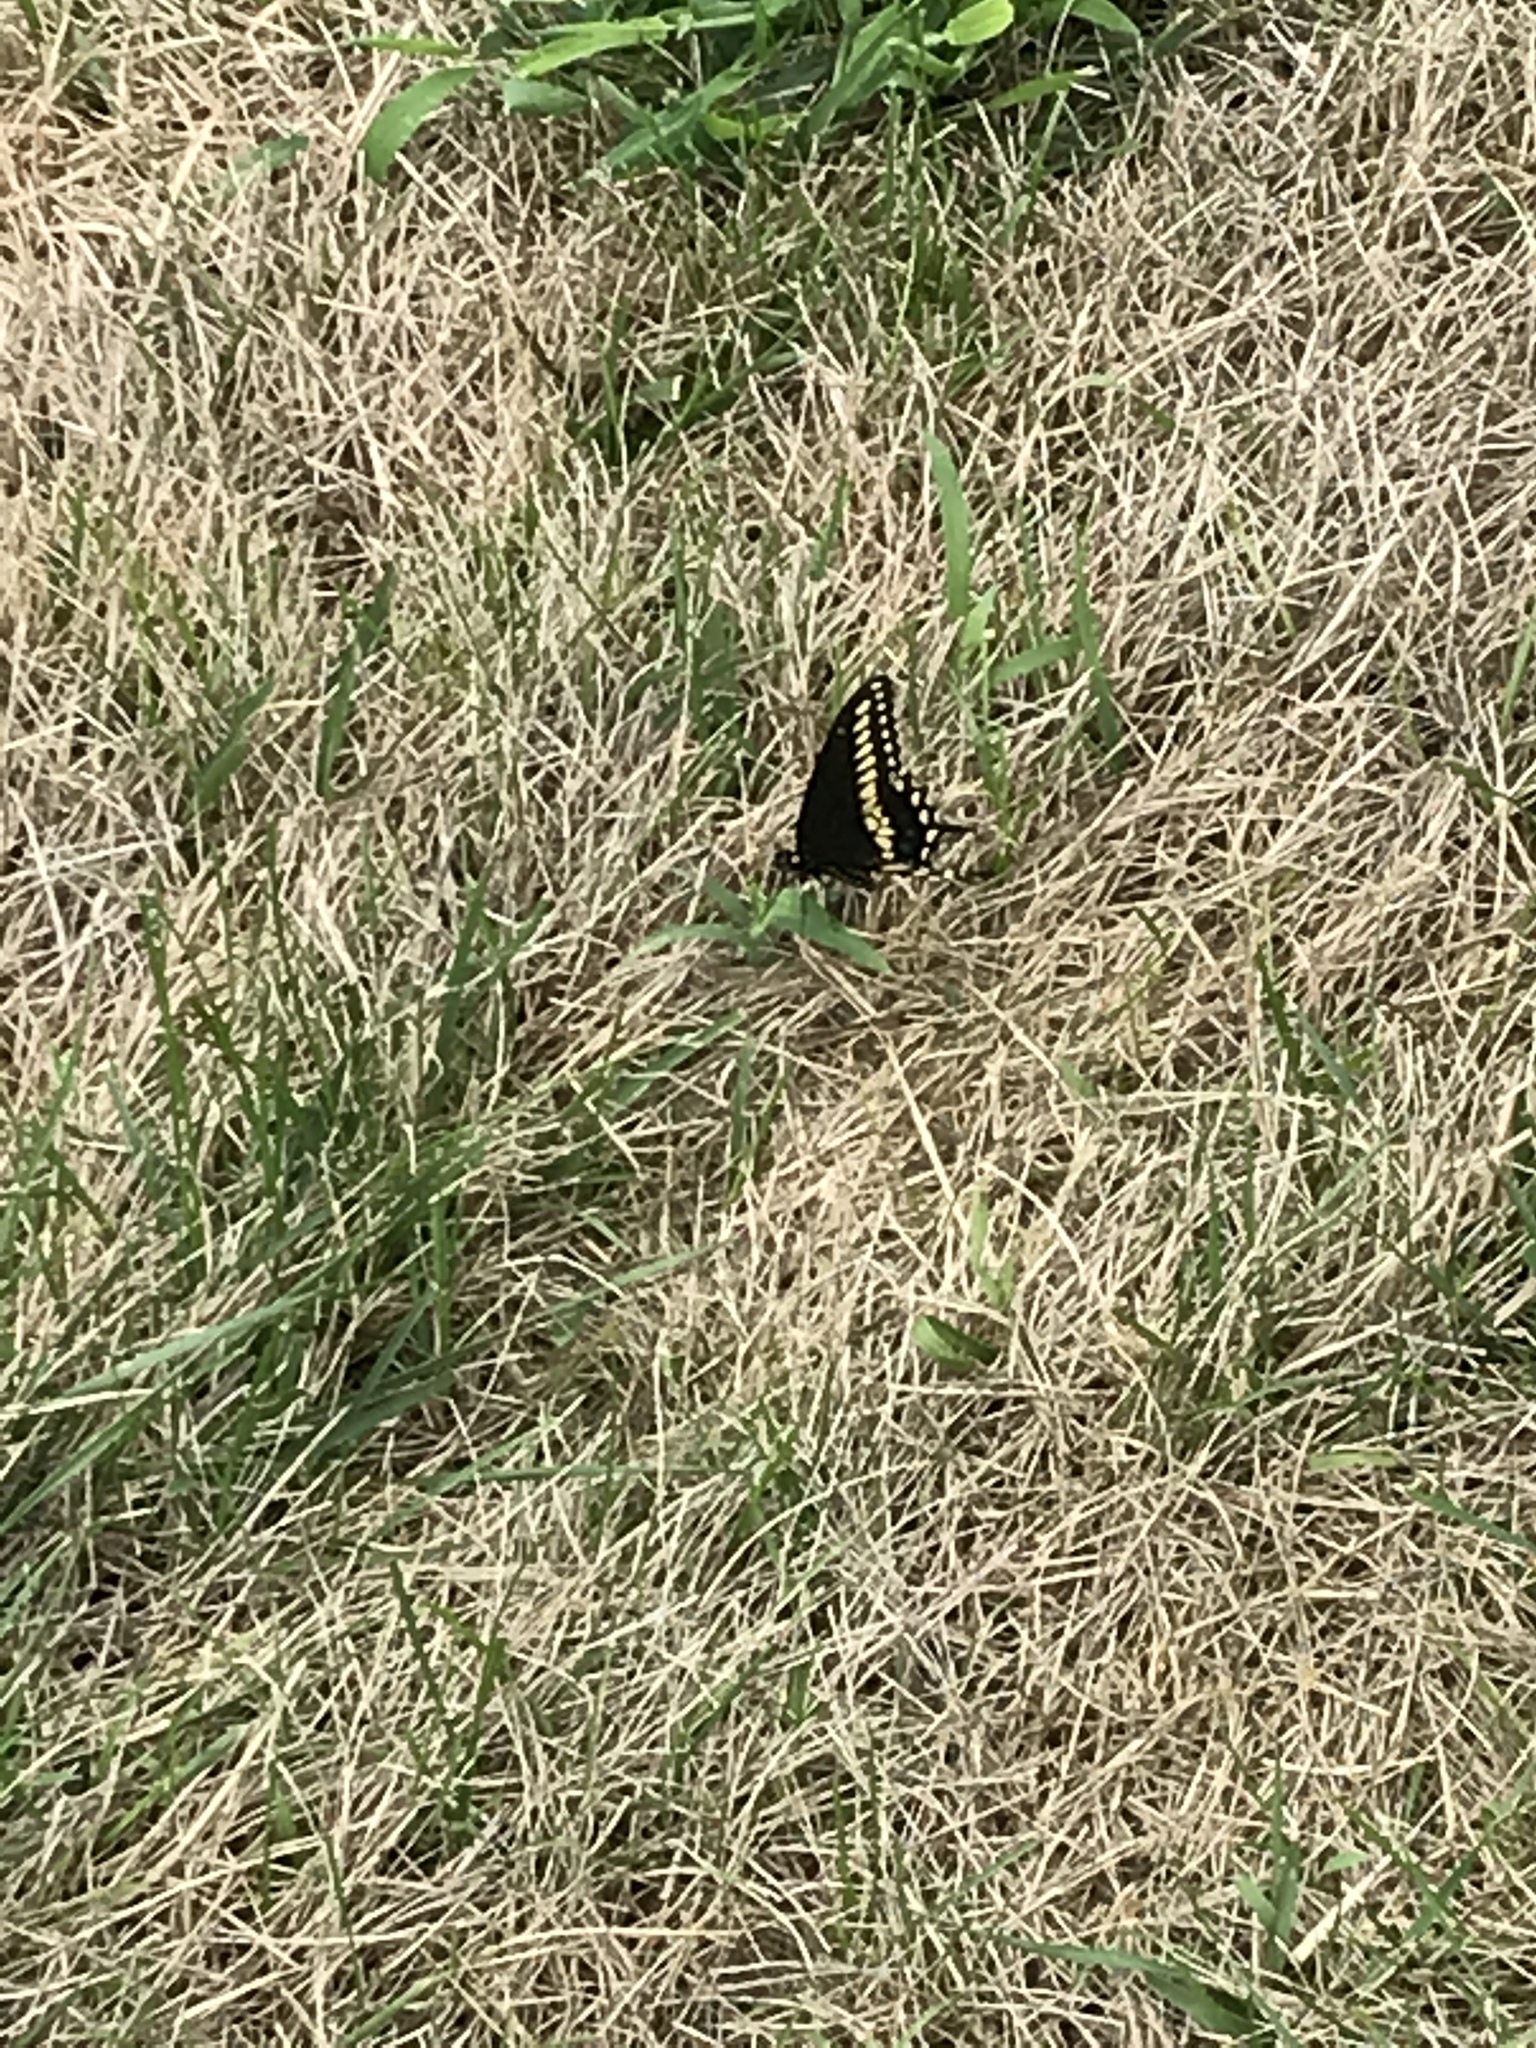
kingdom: Animalia
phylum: Arthropoda
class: Insecta
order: Lepidoptera
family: Papilionidae
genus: Papilio
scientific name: Papilio polyxenes
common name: Black swallowtail
